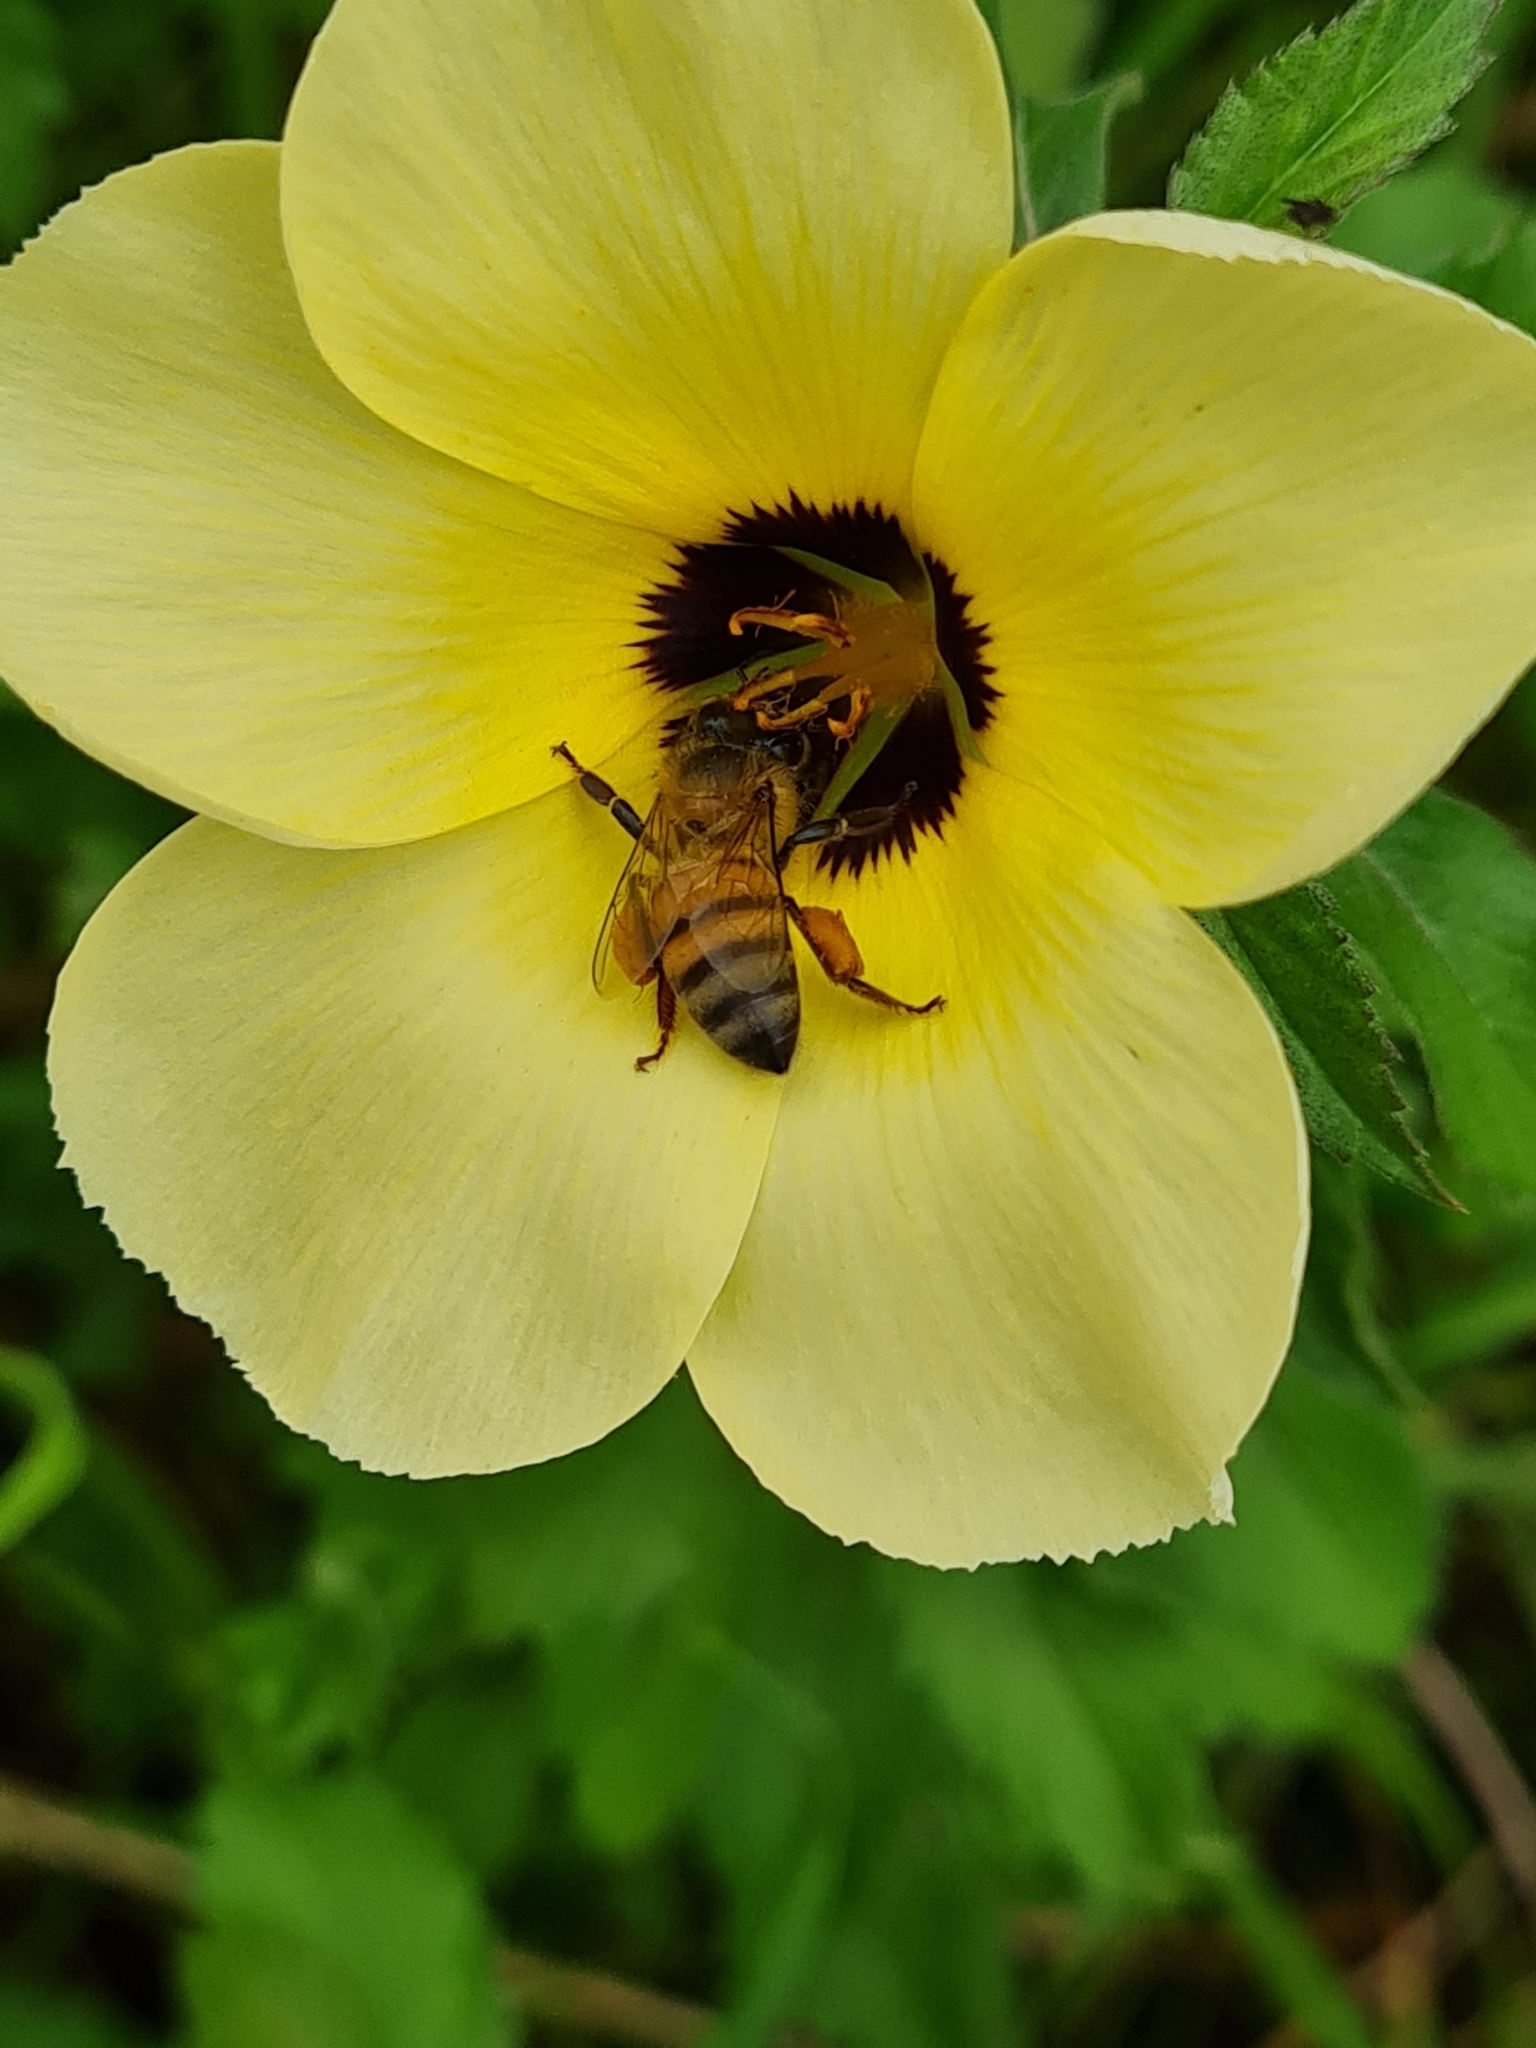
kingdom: Animalia
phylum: Arthropoda
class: Insecta
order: Hymenoptera
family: Apidae
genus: Apis
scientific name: Apis mellifera
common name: Honey bee
